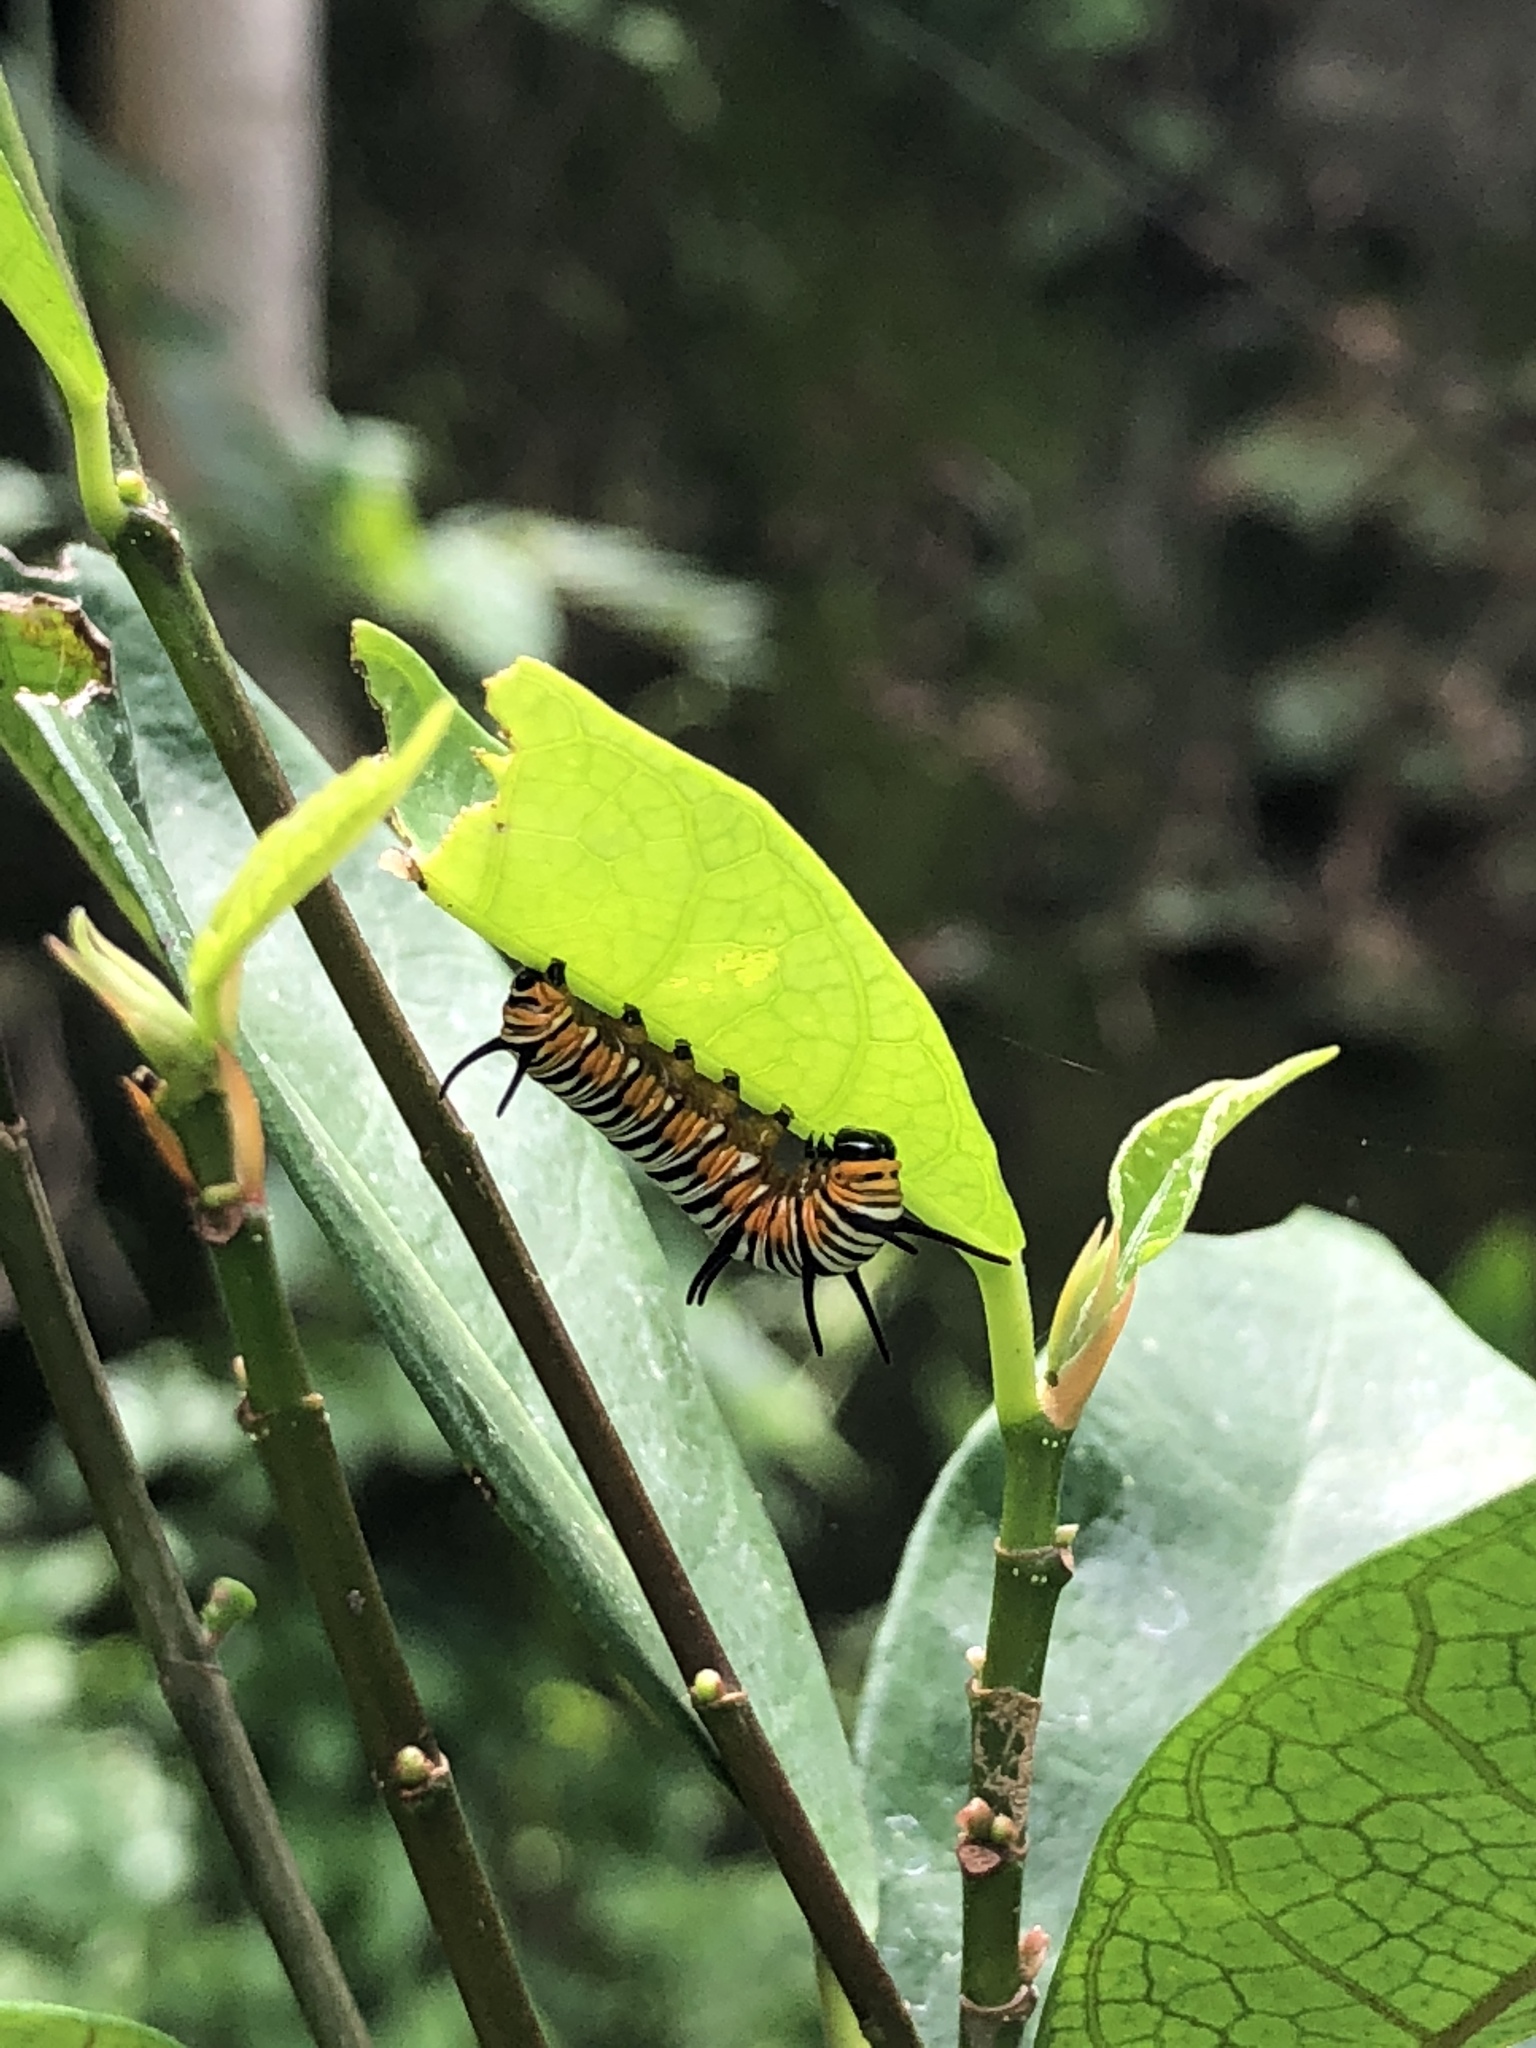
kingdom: Animalia
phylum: Arthropoda
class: Insecta
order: Lepidoptera
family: Nymphalidae
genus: Euploea
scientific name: Euploea mulciber
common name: Striped blue crow butterfly
